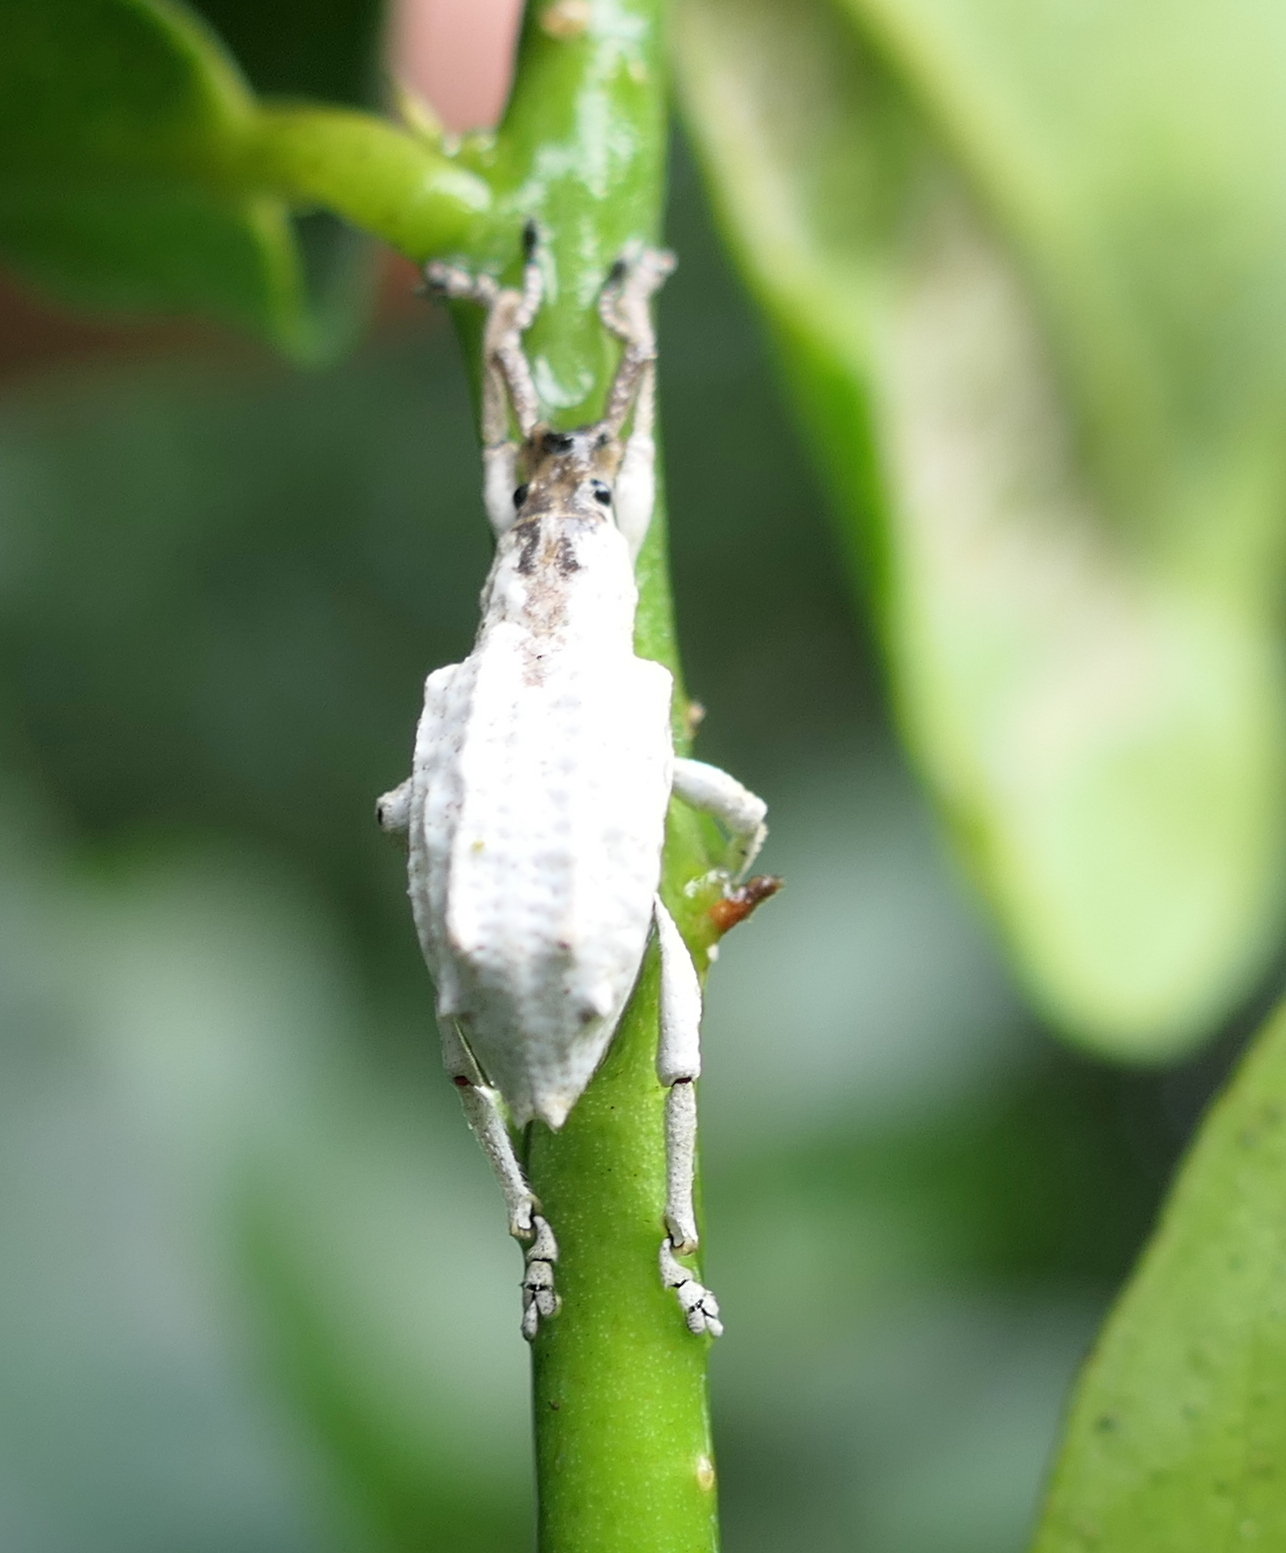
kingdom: Animalia
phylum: Arthropoda
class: Insecta
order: Coleoptera
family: Curculionidae
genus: Compsus
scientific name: Compsus niveus
